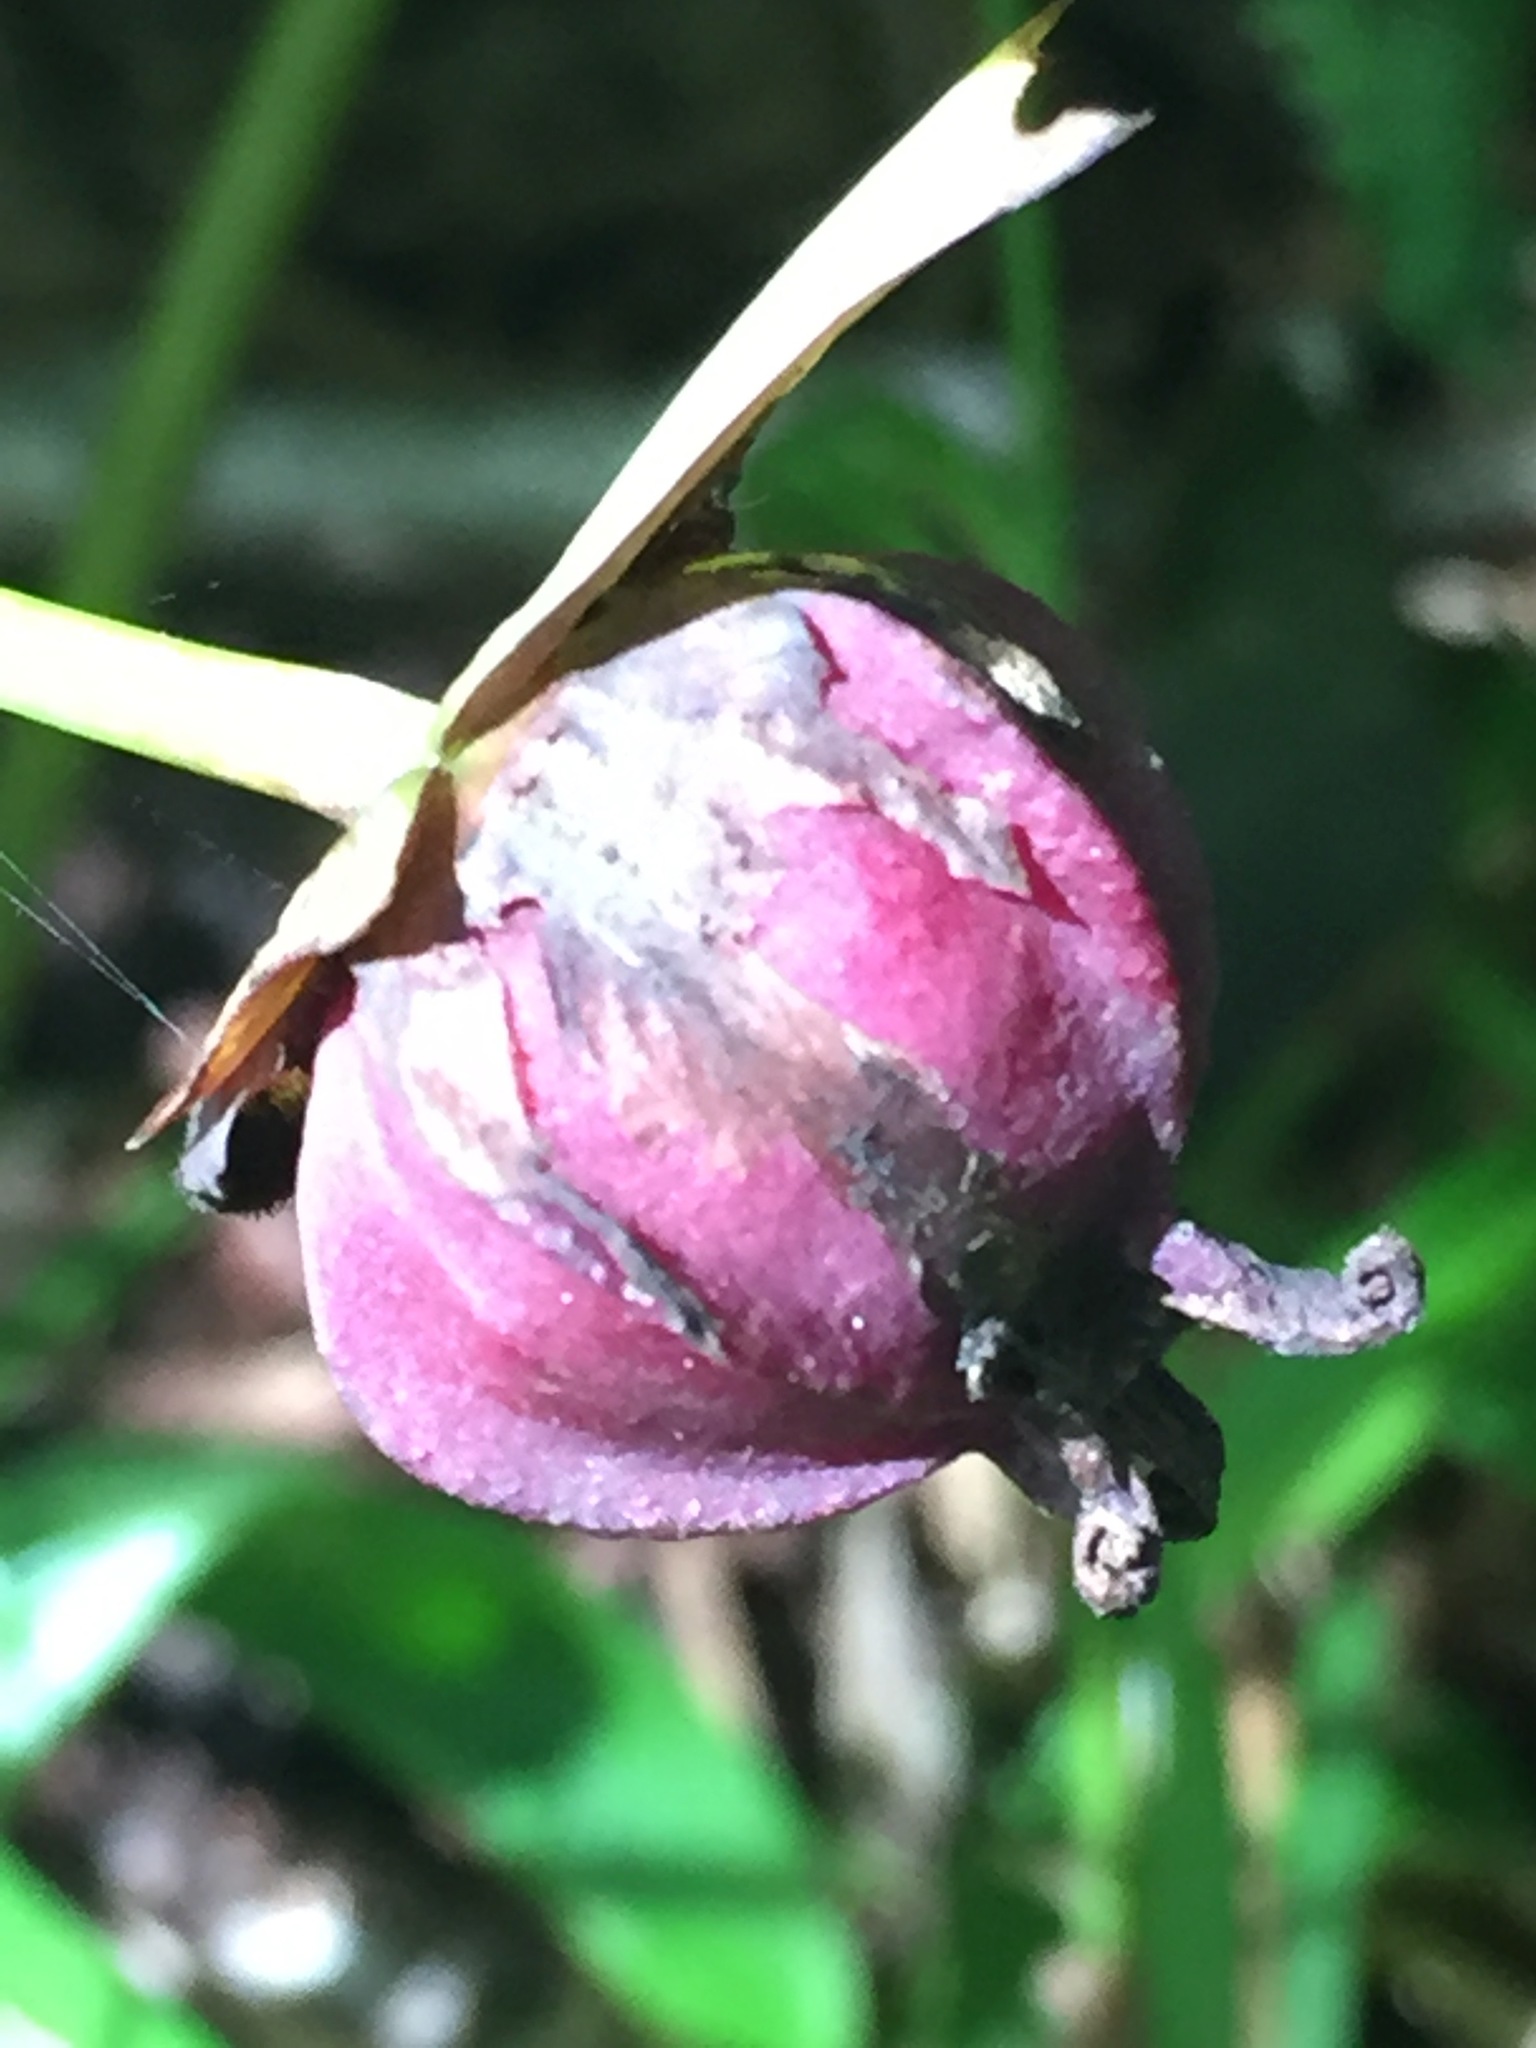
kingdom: Plantae
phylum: Tracheophyta
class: Liliopsida
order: Liliales
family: Melanthiaceae
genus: Trillium
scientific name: Trillium erectum
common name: Purple trillium
